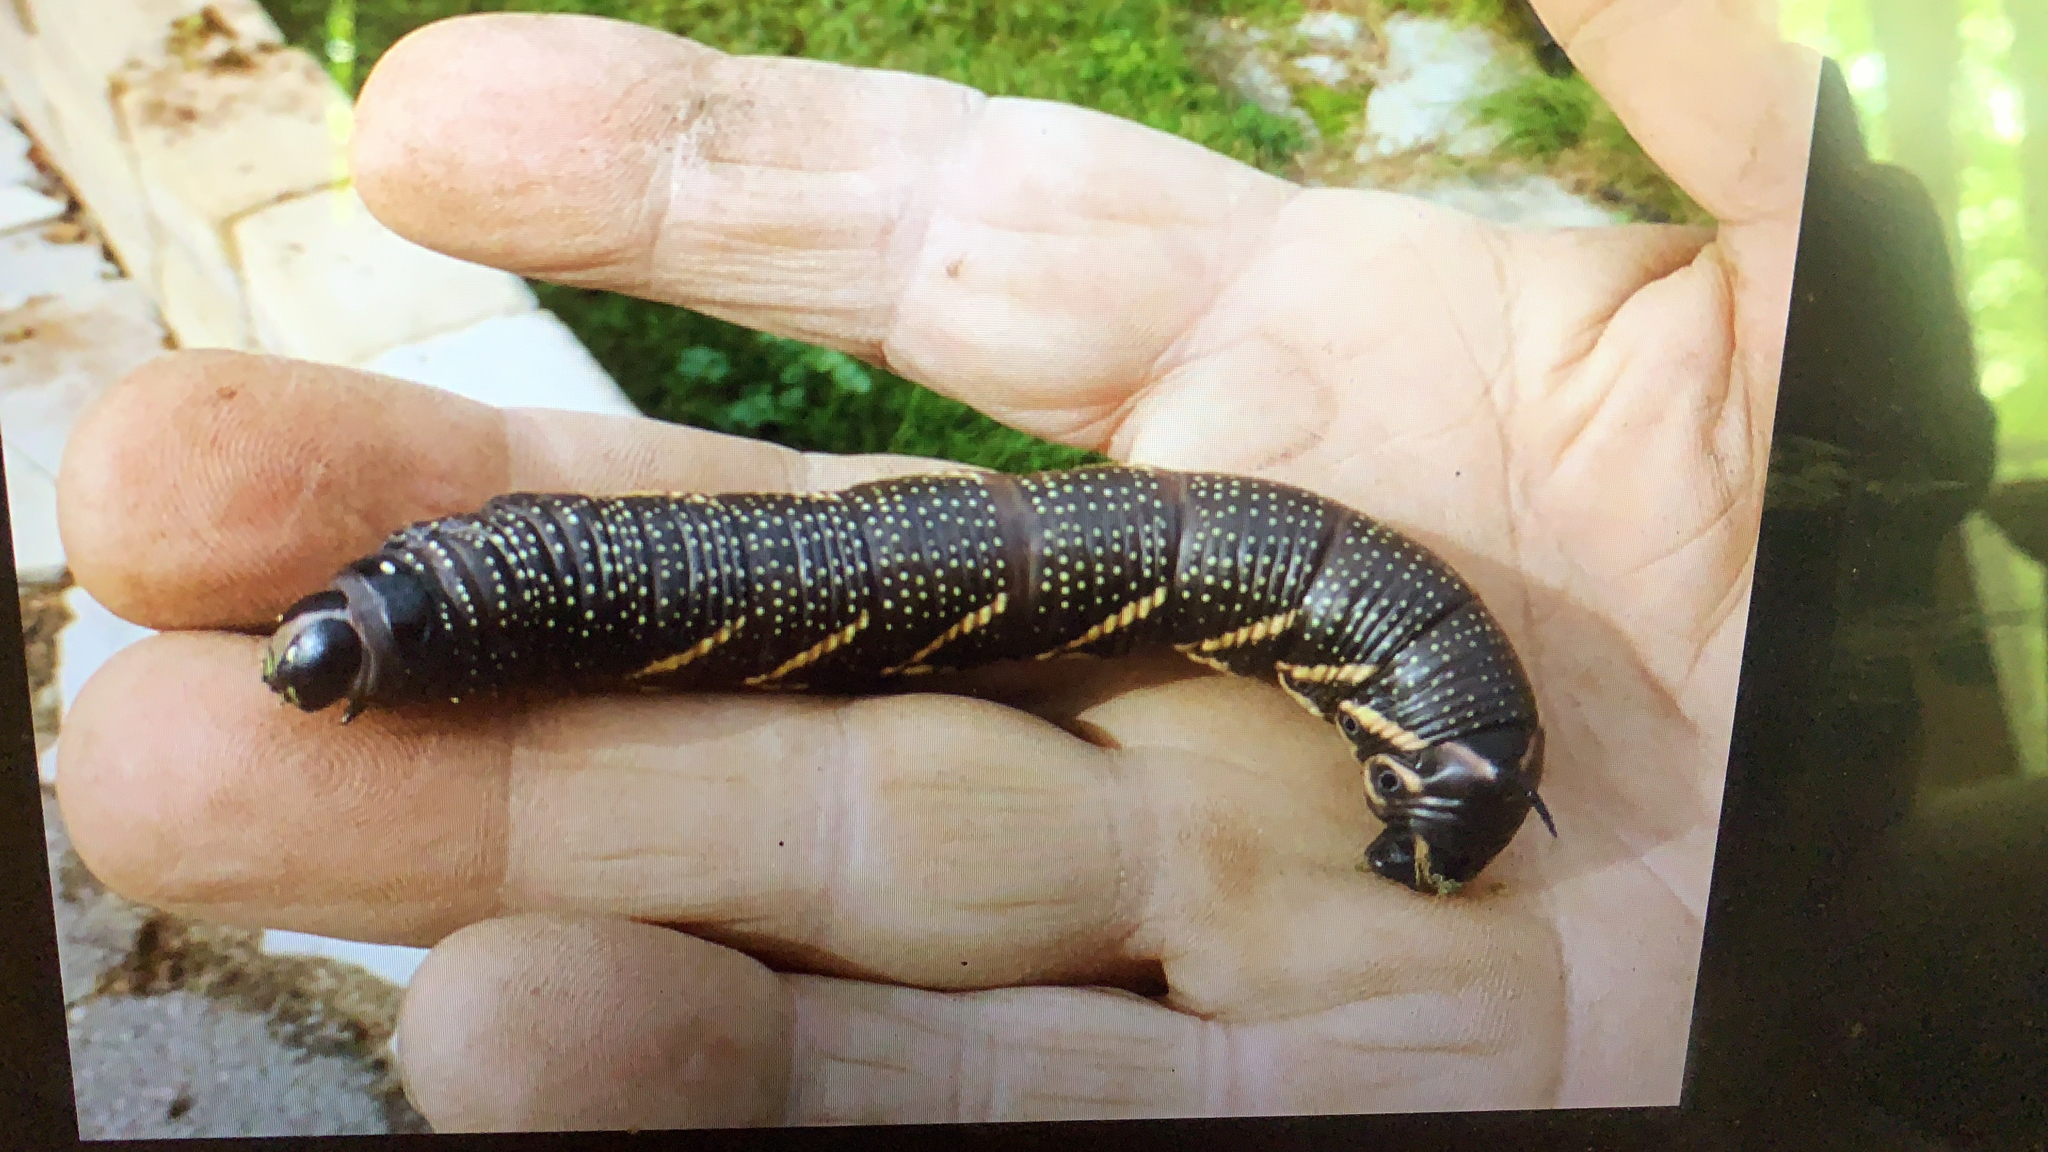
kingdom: Animalia
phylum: Arthropoda
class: Insecta
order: Lepidoptera
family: Sphingidae
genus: Manduca
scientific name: Manduca quinquemaculatus
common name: Five-spotted hawk-moth
